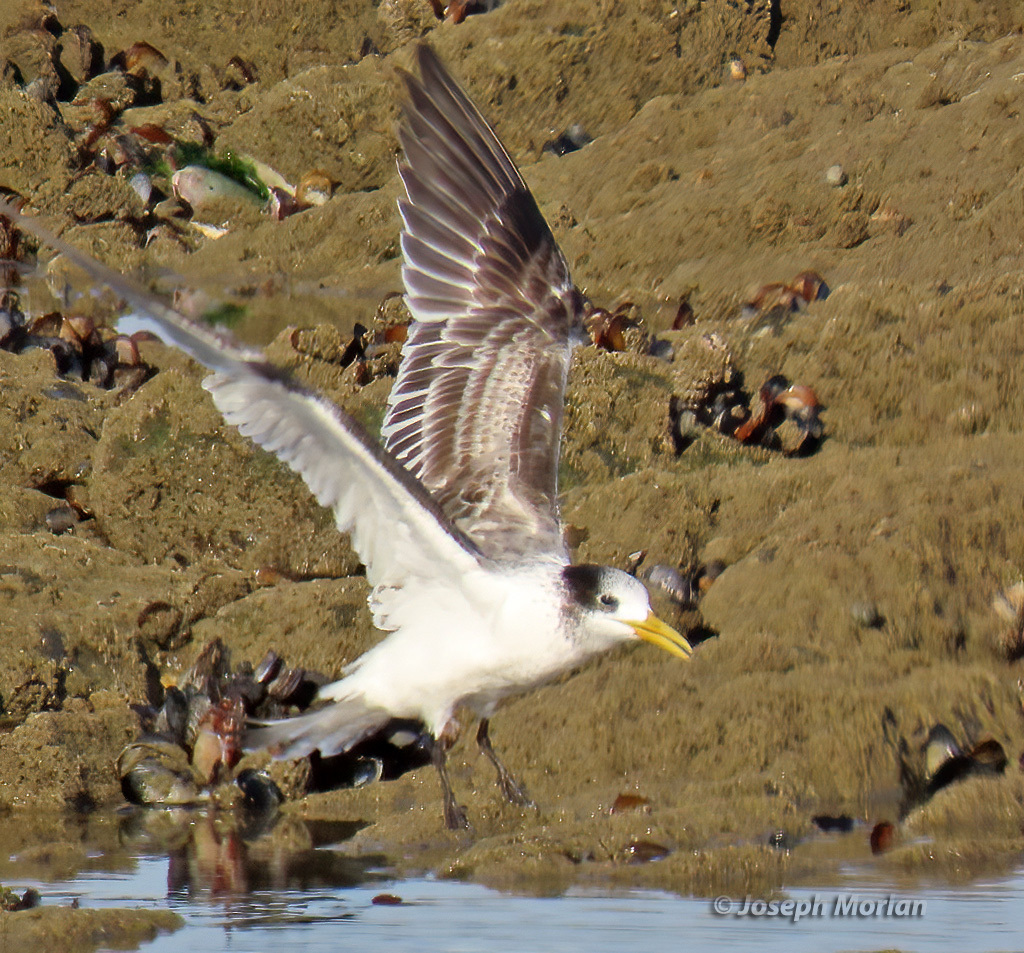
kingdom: Animalia
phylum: Chordata
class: Aves
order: Charadriiformes
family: Laridae
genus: Thalasseus
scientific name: Thalasseus bergii
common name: Greater crested tern
